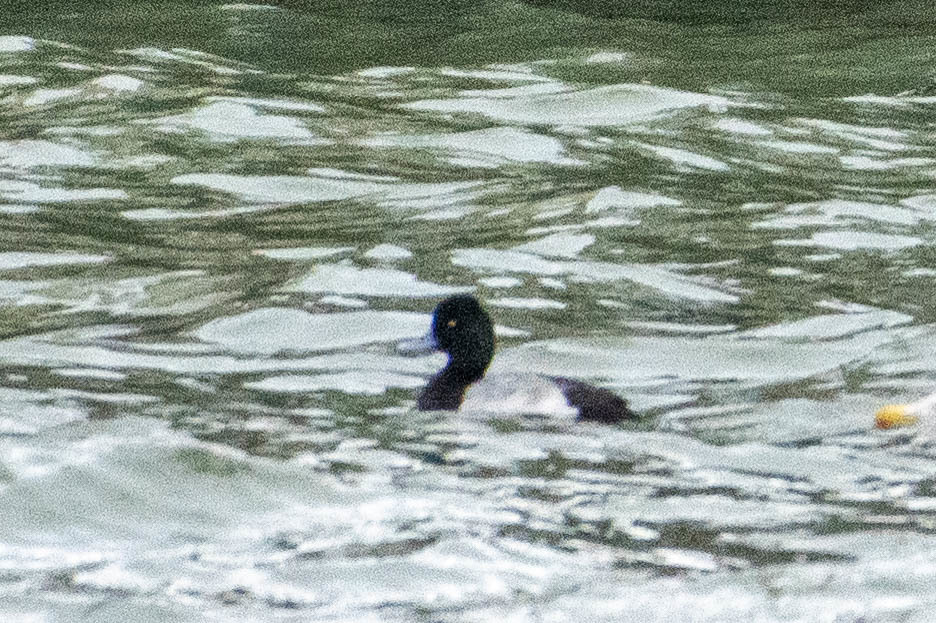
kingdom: Animalia
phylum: Chordata
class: Aves
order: Anseriformes
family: Anatidae
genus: Aythya
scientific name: Aythya affinis
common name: Lesser scaup
